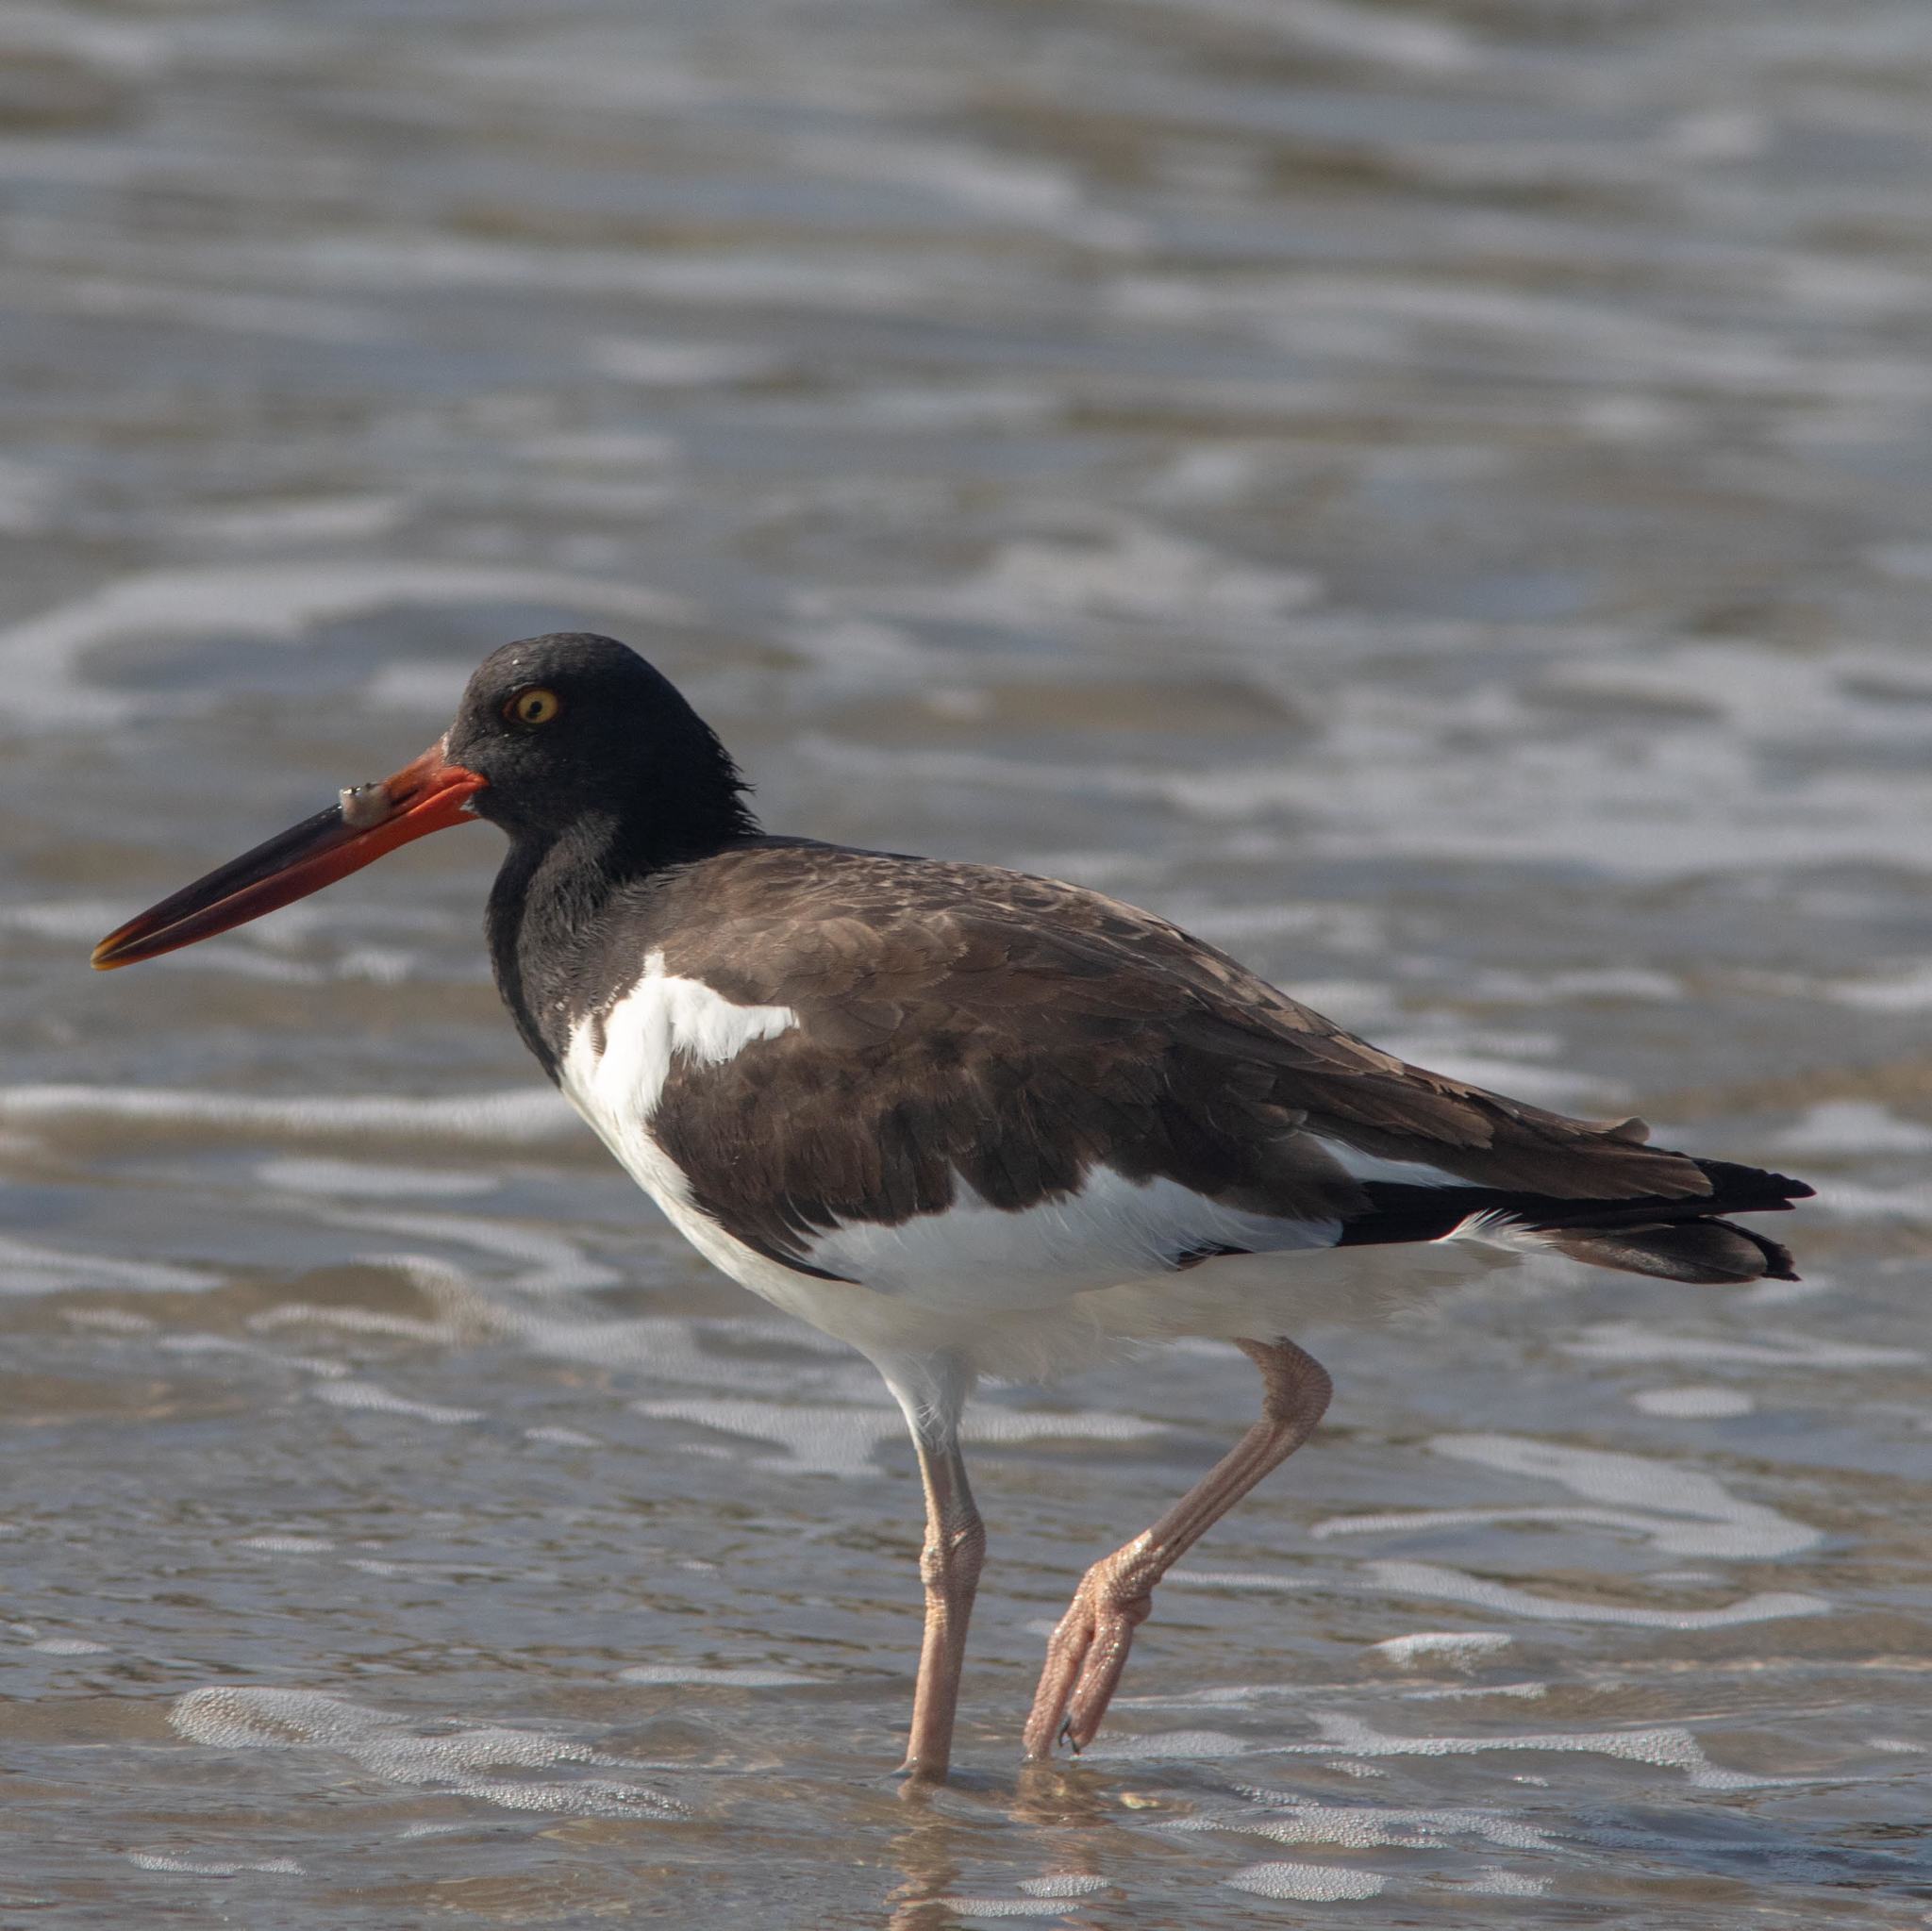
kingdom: Animalia
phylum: Chordata
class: Aves
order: Charadriiformes
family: Haematopodidae
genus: Haematopus
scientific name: Haematopus palliatus
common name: American oystercatcher
